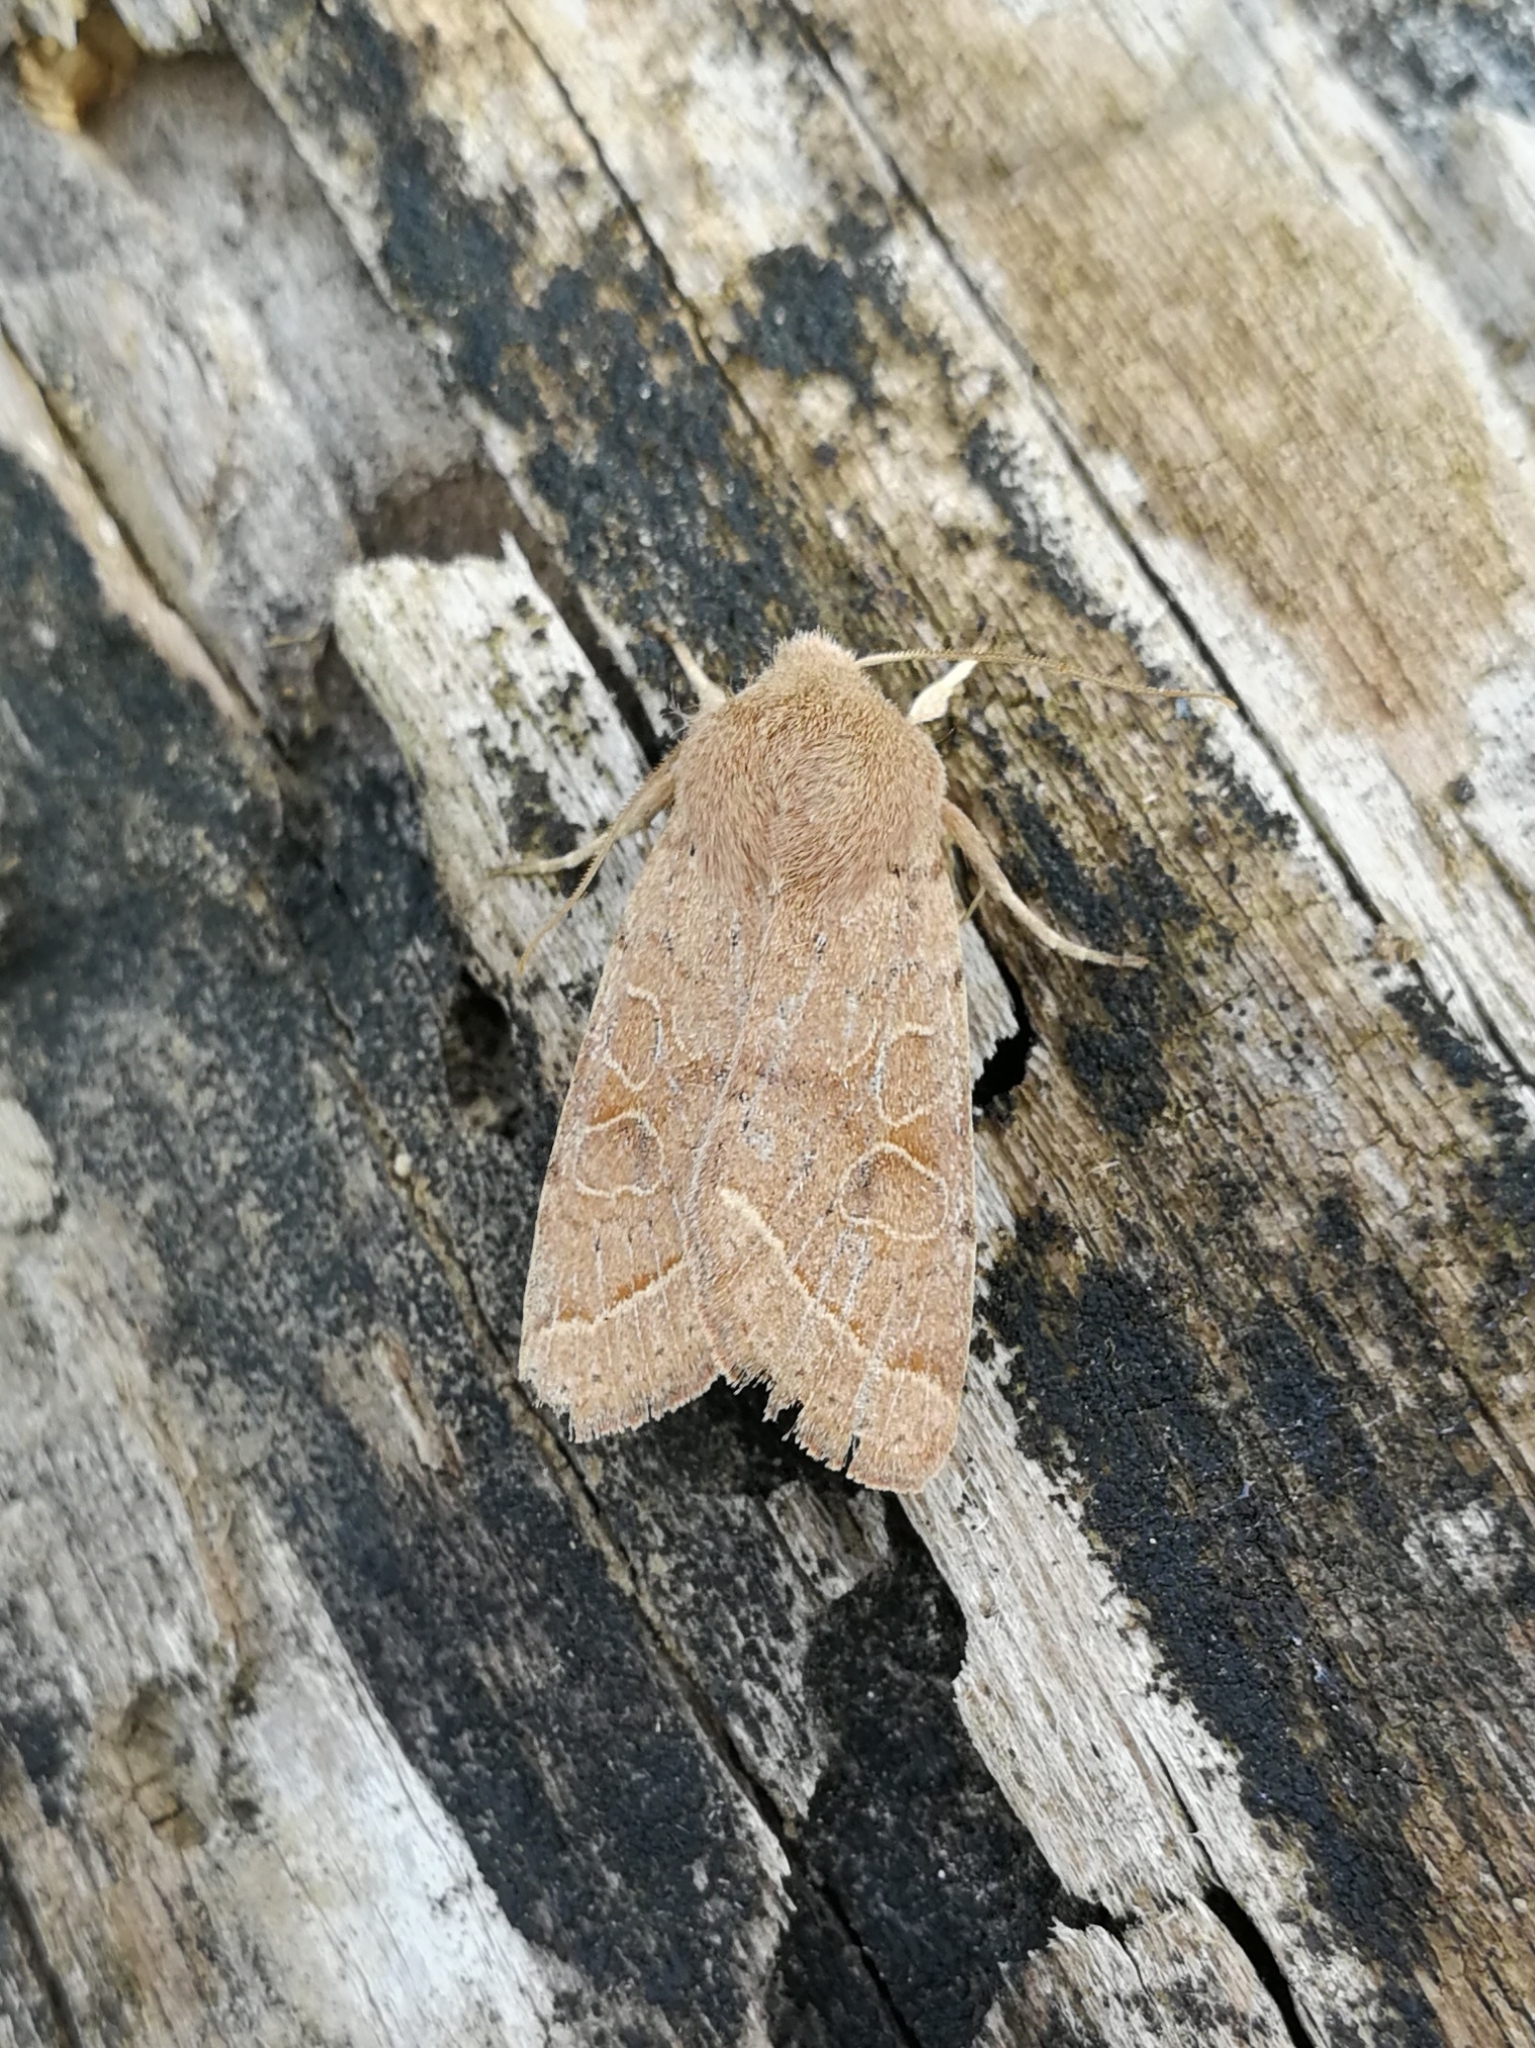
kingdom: Animalia
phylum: Arthropoda
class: Insecta
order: Lepidoptera
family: Noctuidae
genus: Orthosia
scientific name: Orthosia cerasi
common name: Common quaker
